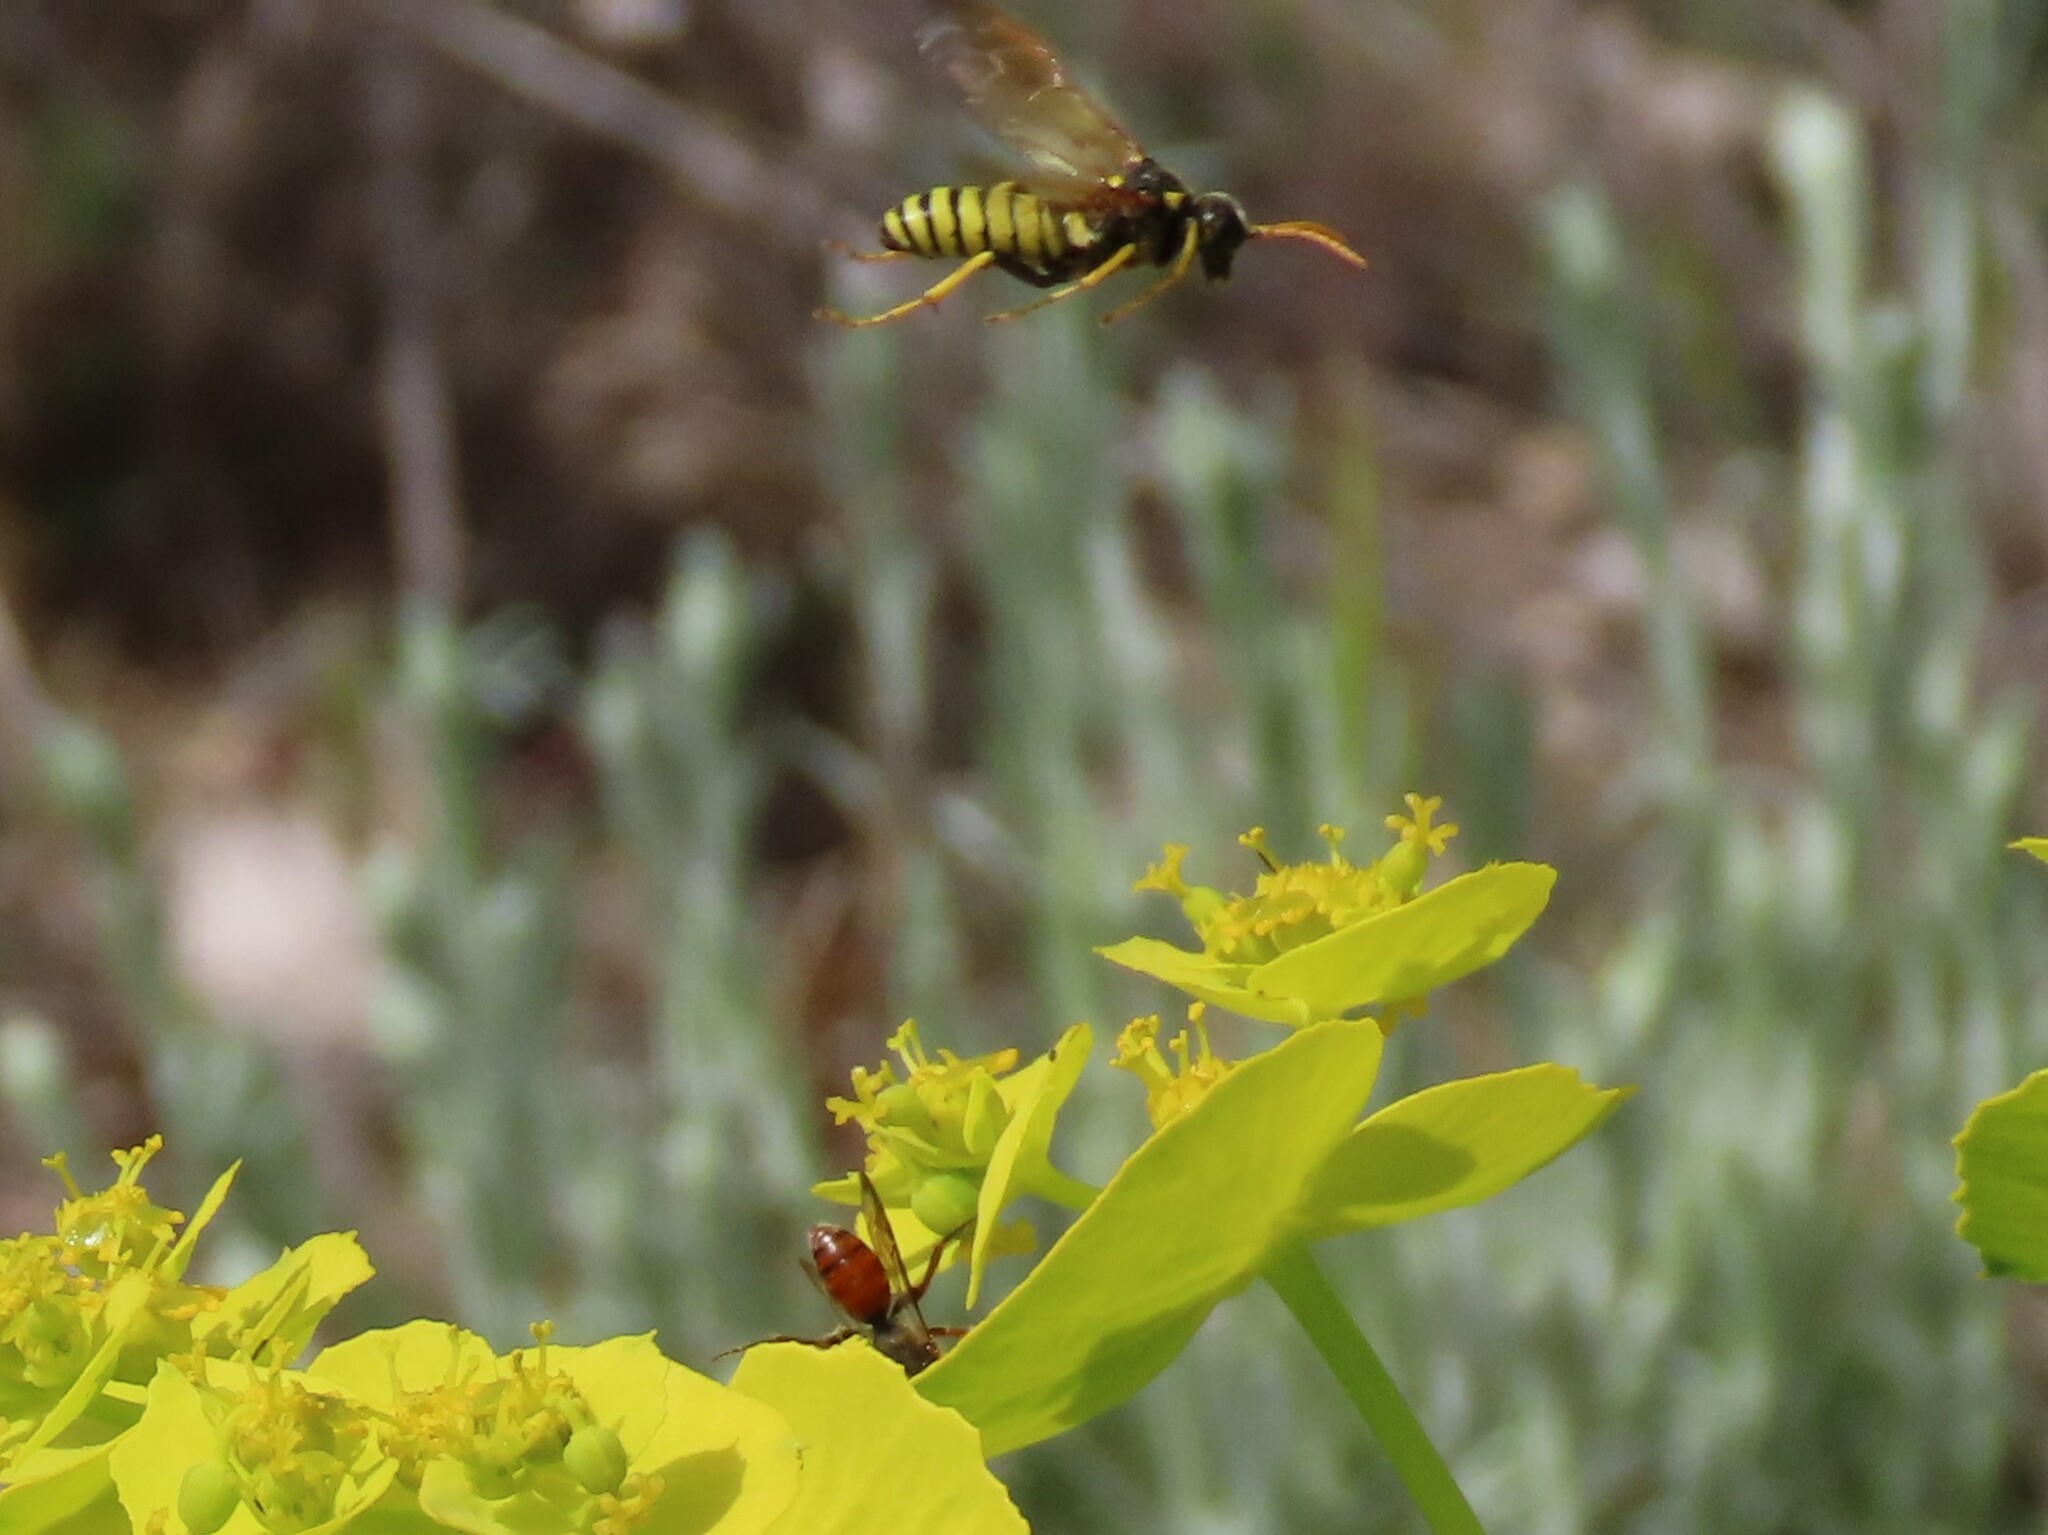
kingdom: Animalia
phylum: Arthropoda
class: Insecta
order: Hymenoptera
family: Tenthredinidae
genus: Tenthredo
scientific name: Tenthredo meridiana
